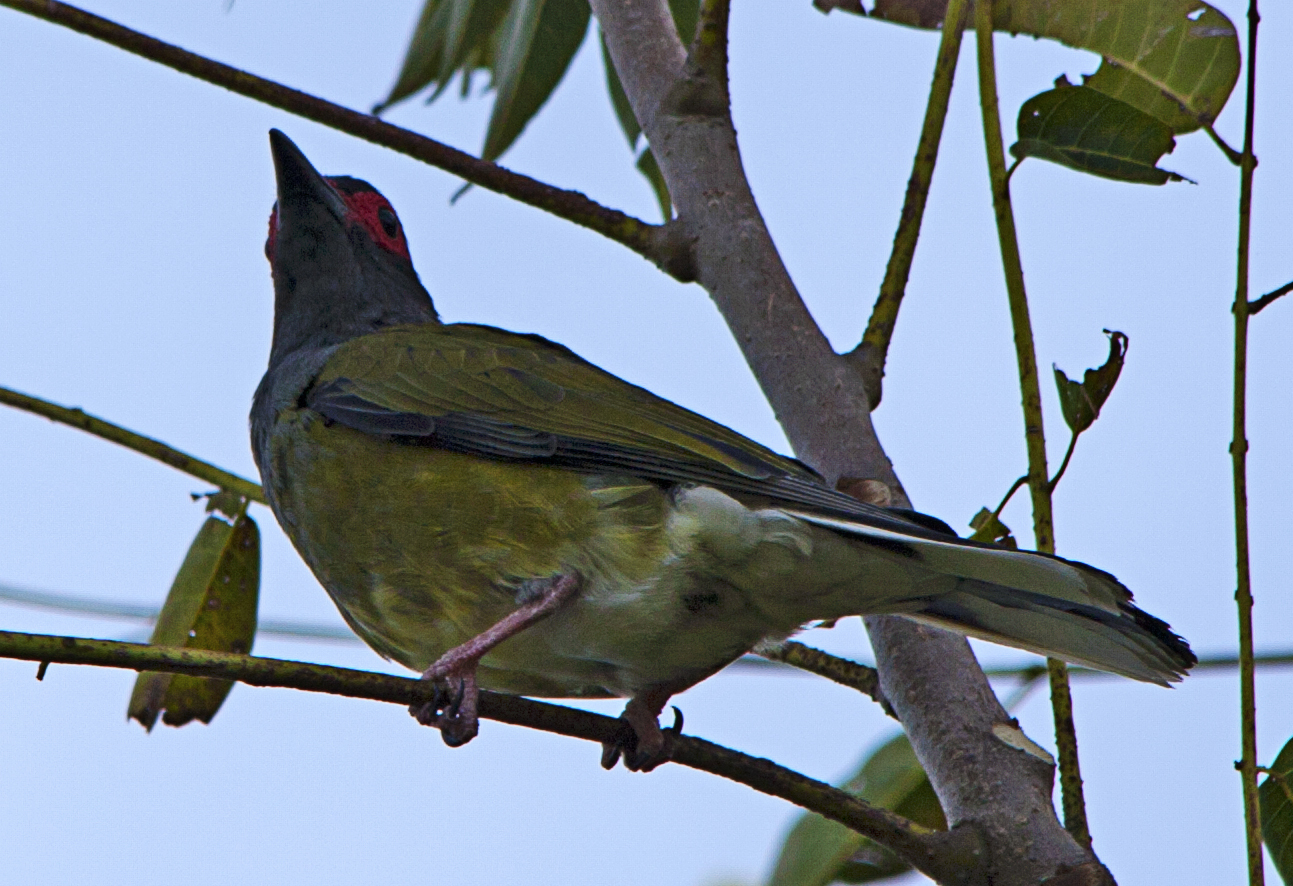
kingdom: Animalia
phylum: Chordata
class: Aves
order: Passeriformes
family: Oriolidae
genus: Sphecotheres
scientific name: Sphecotheres vieilloti
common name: Australasian figbird
